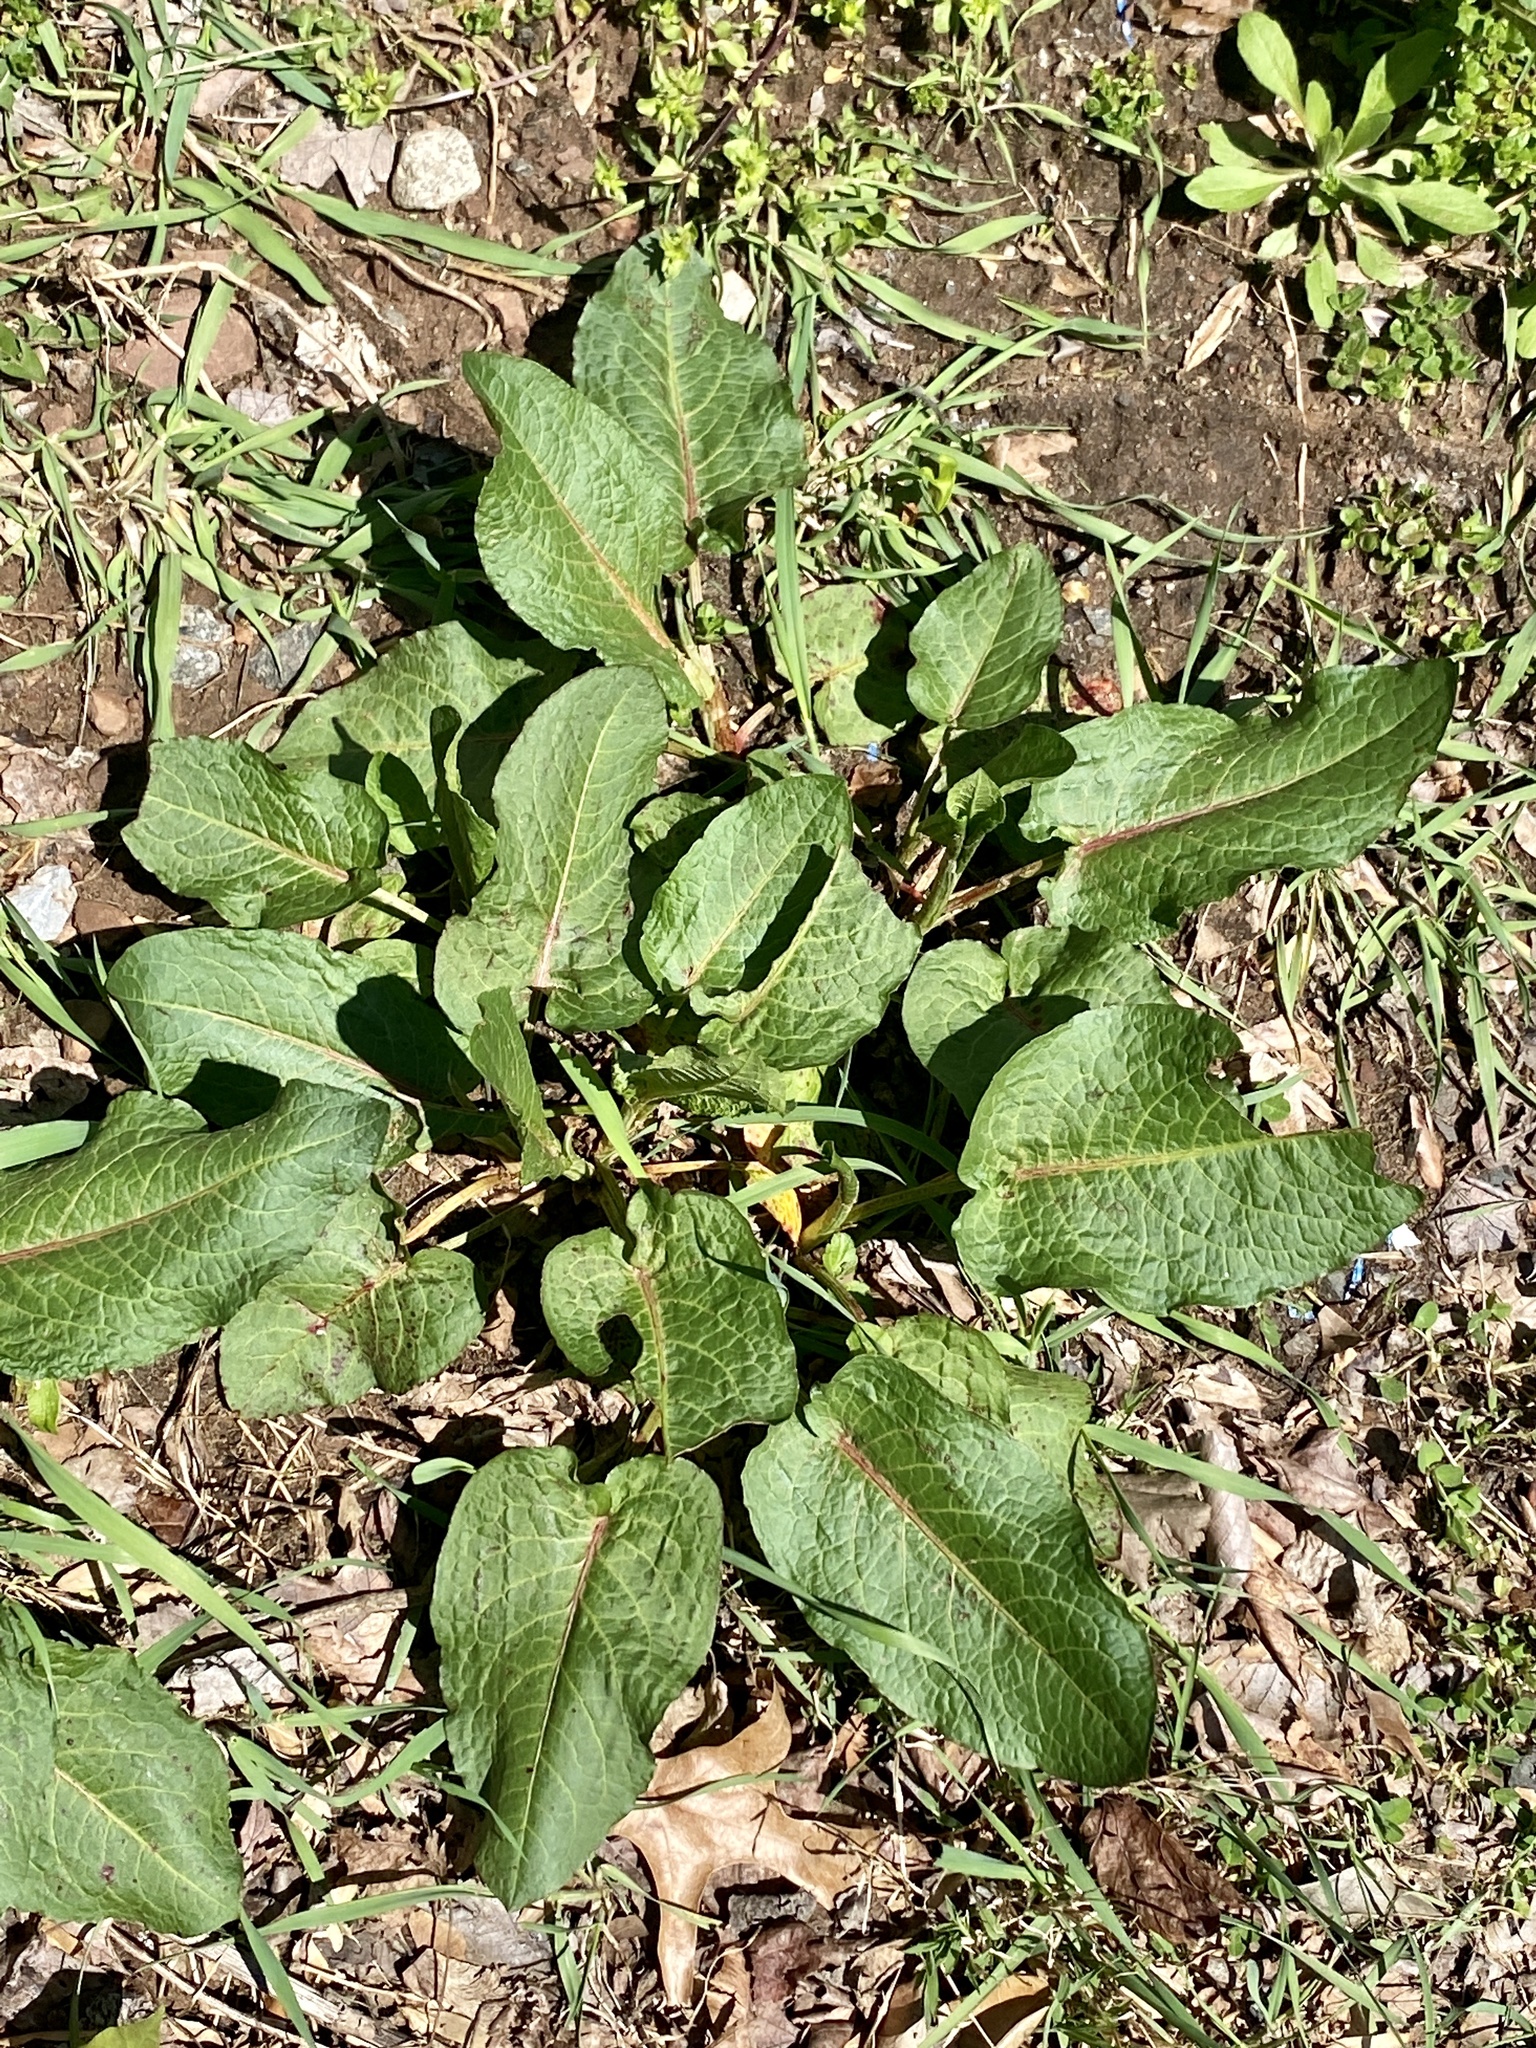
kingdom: Plantae
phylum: Tracheophyta
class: Magnoliopsida
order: Caryophyllales
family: Polygonaceae
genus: Rumex
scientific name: Rumex obtusifolius
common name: Bitter dock
